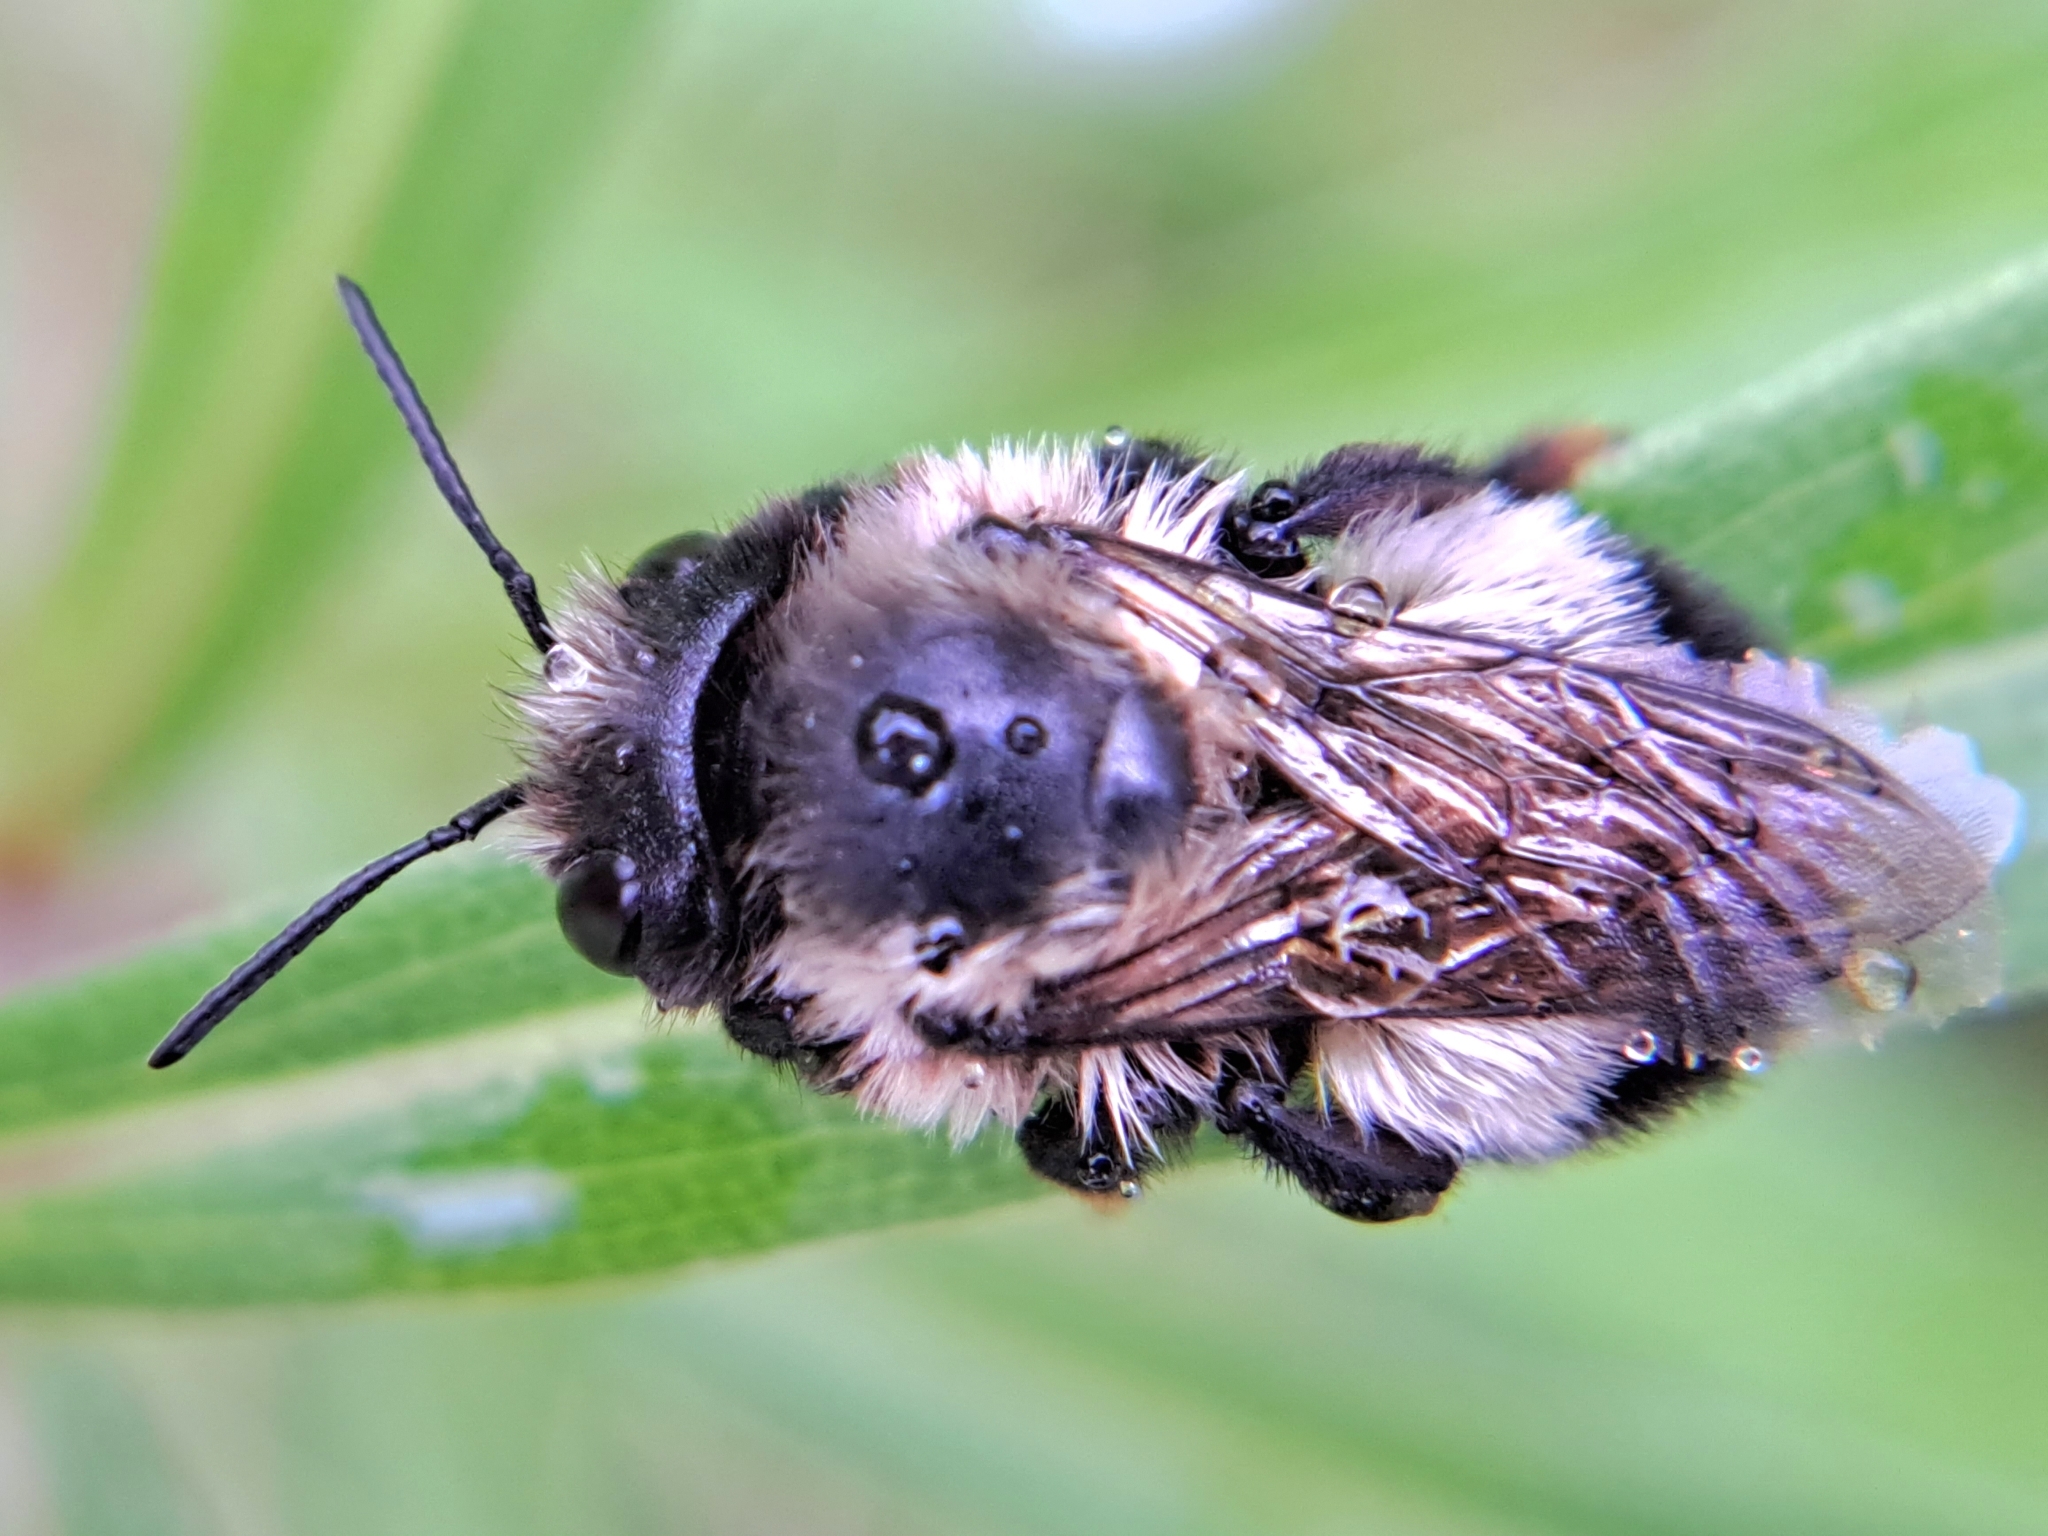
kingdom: Animalia
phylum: Arthropoda
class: Insecta
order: Hymenoptera
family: Megachilidae
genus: Megachile
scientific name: Megachile melanophaea
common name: Black-and-gray leafcutter bee
